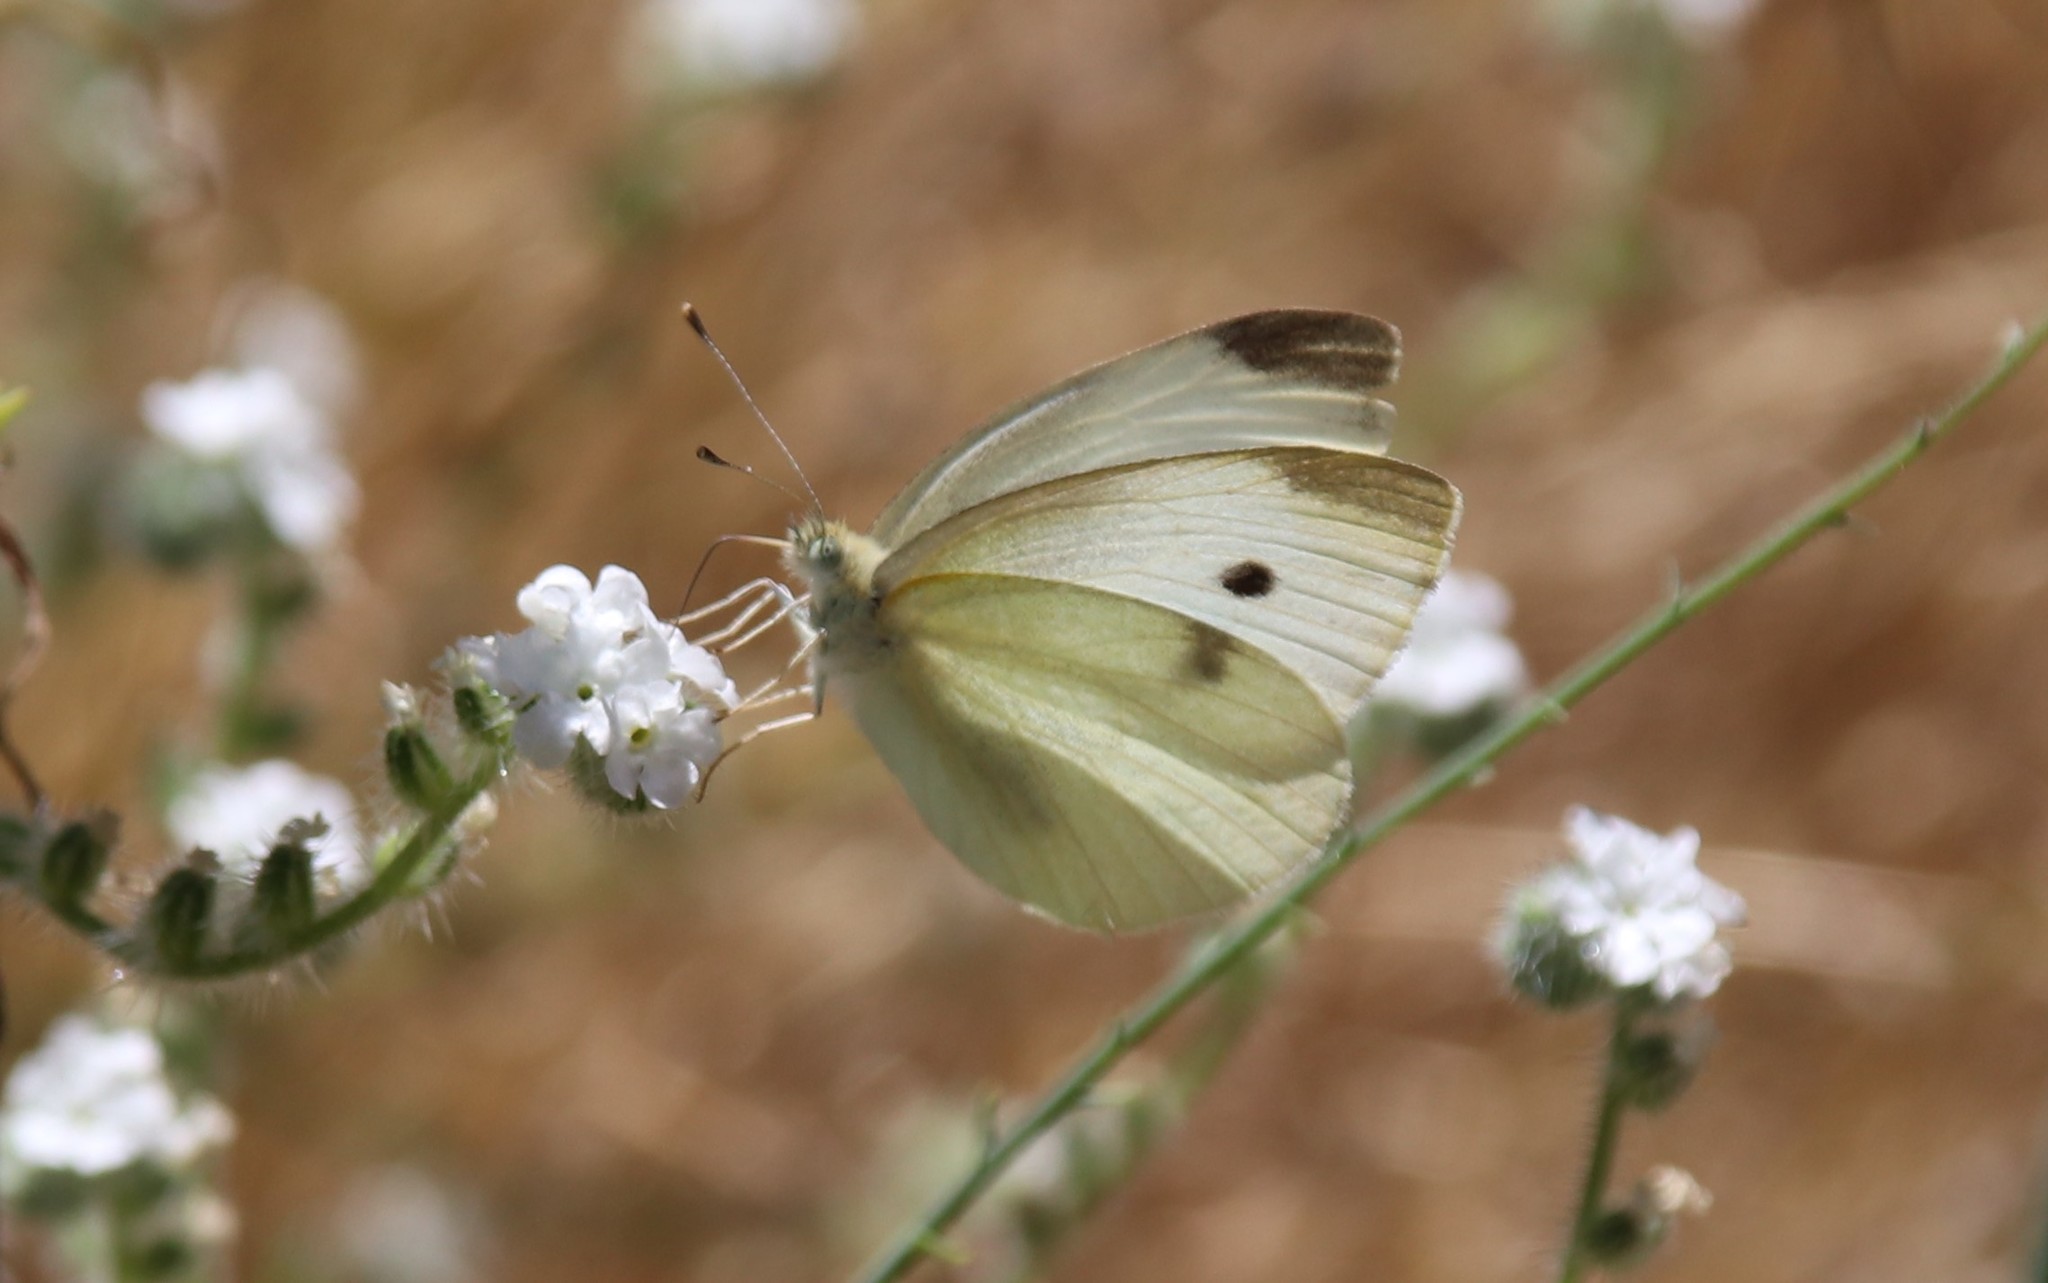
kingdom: Animalia
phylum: Arthropoda
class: Insecta
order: Lepidoptera
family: Pieridae
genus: Pieris
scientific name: Pieris rapae
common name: Small white
